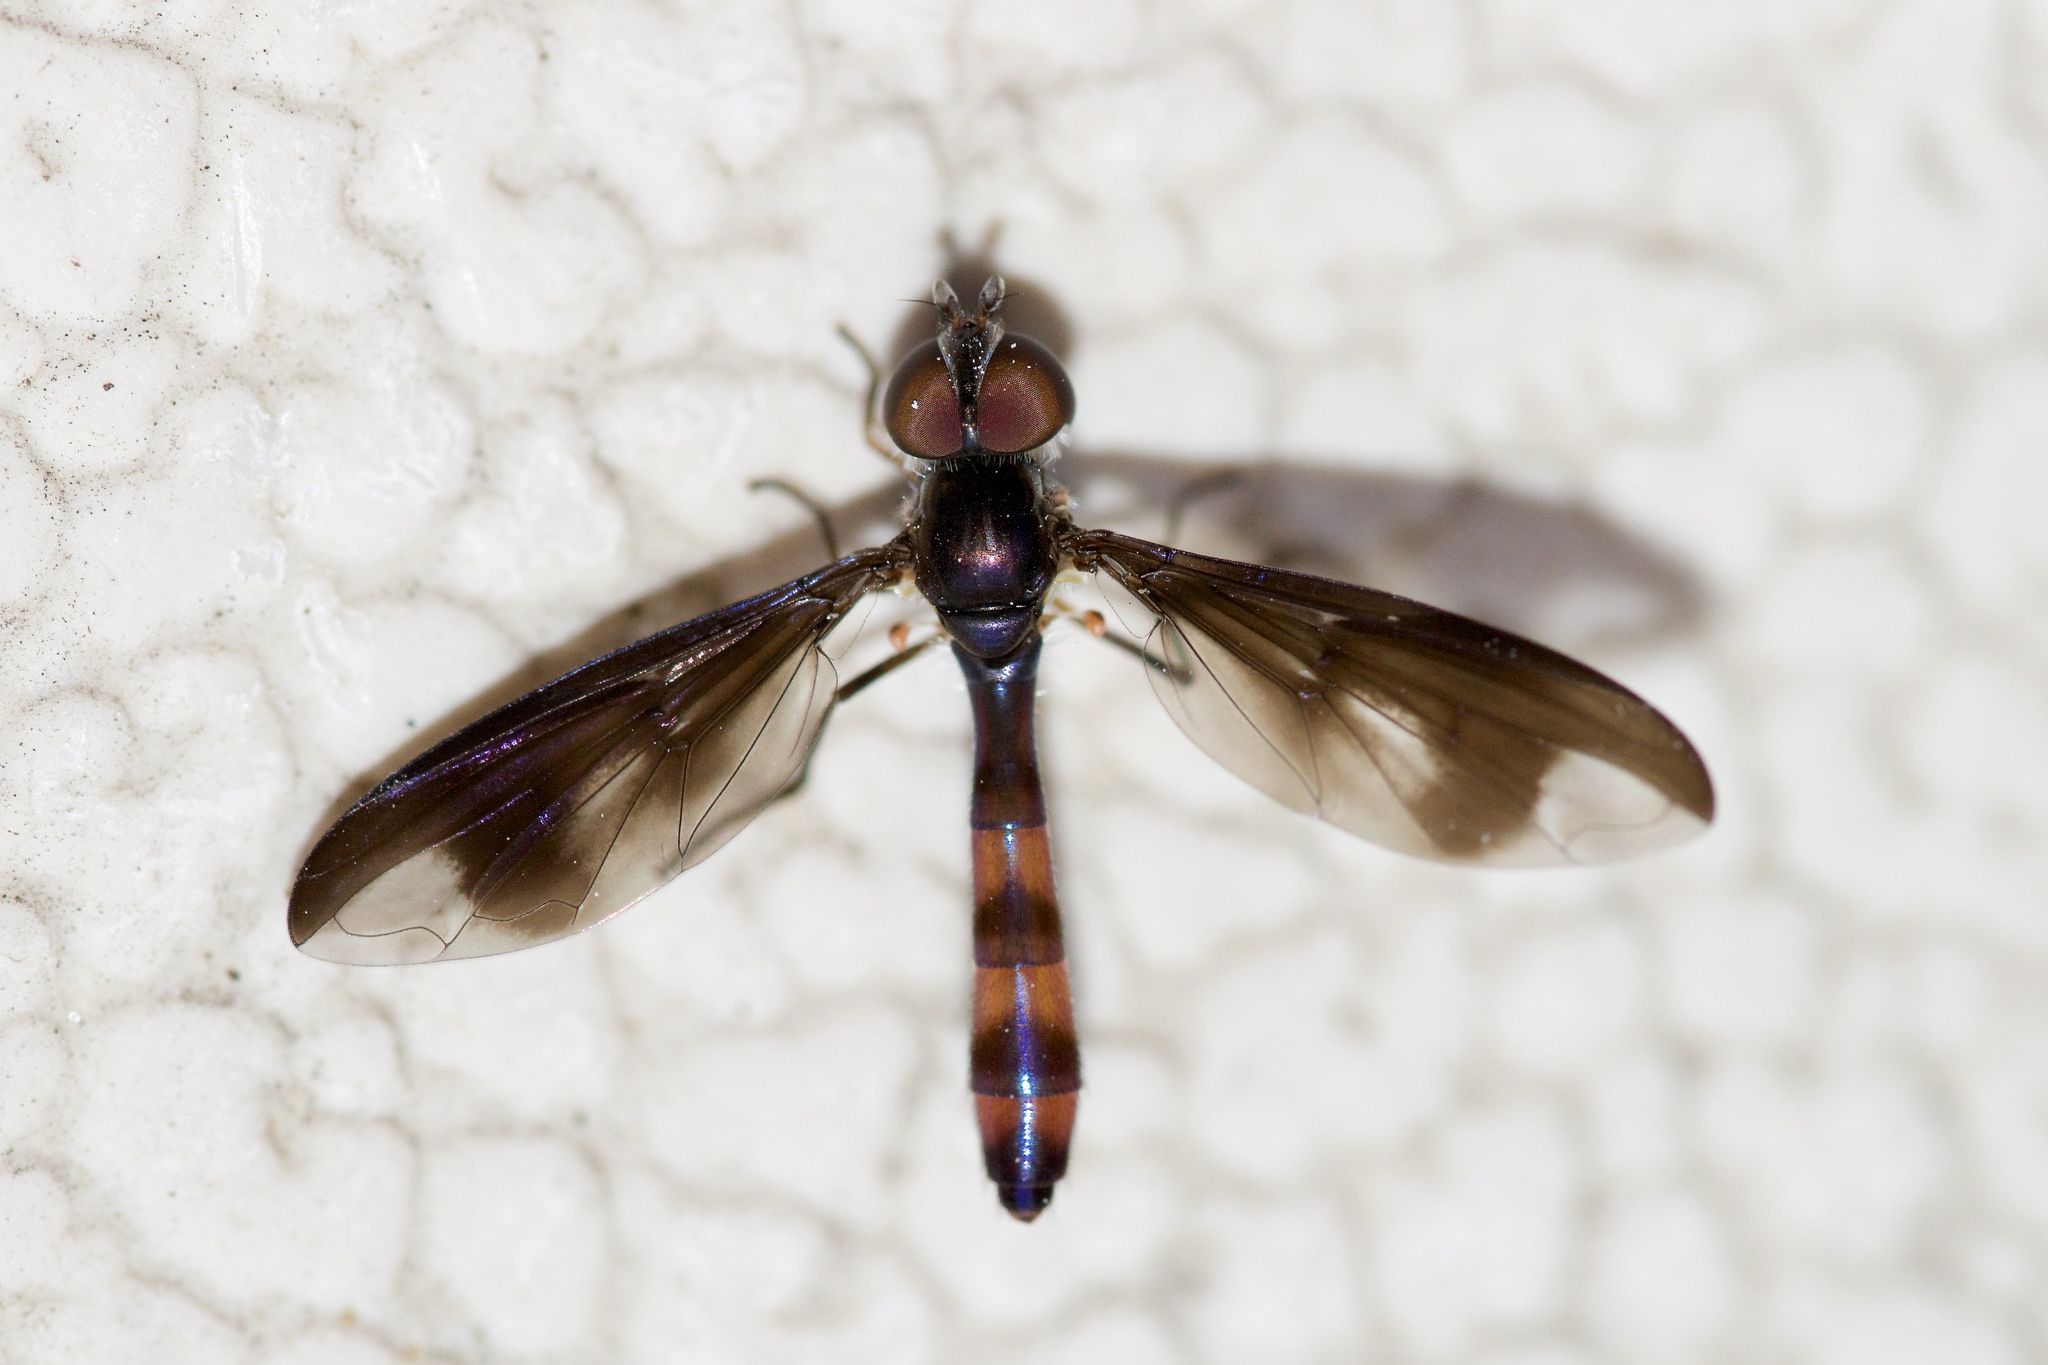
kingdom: Animalia
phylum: Arthropoda
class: Insecta
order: Diptera
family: Syrphidae
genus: Ocyptamus
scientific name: Ocyptamus fuscipennis
